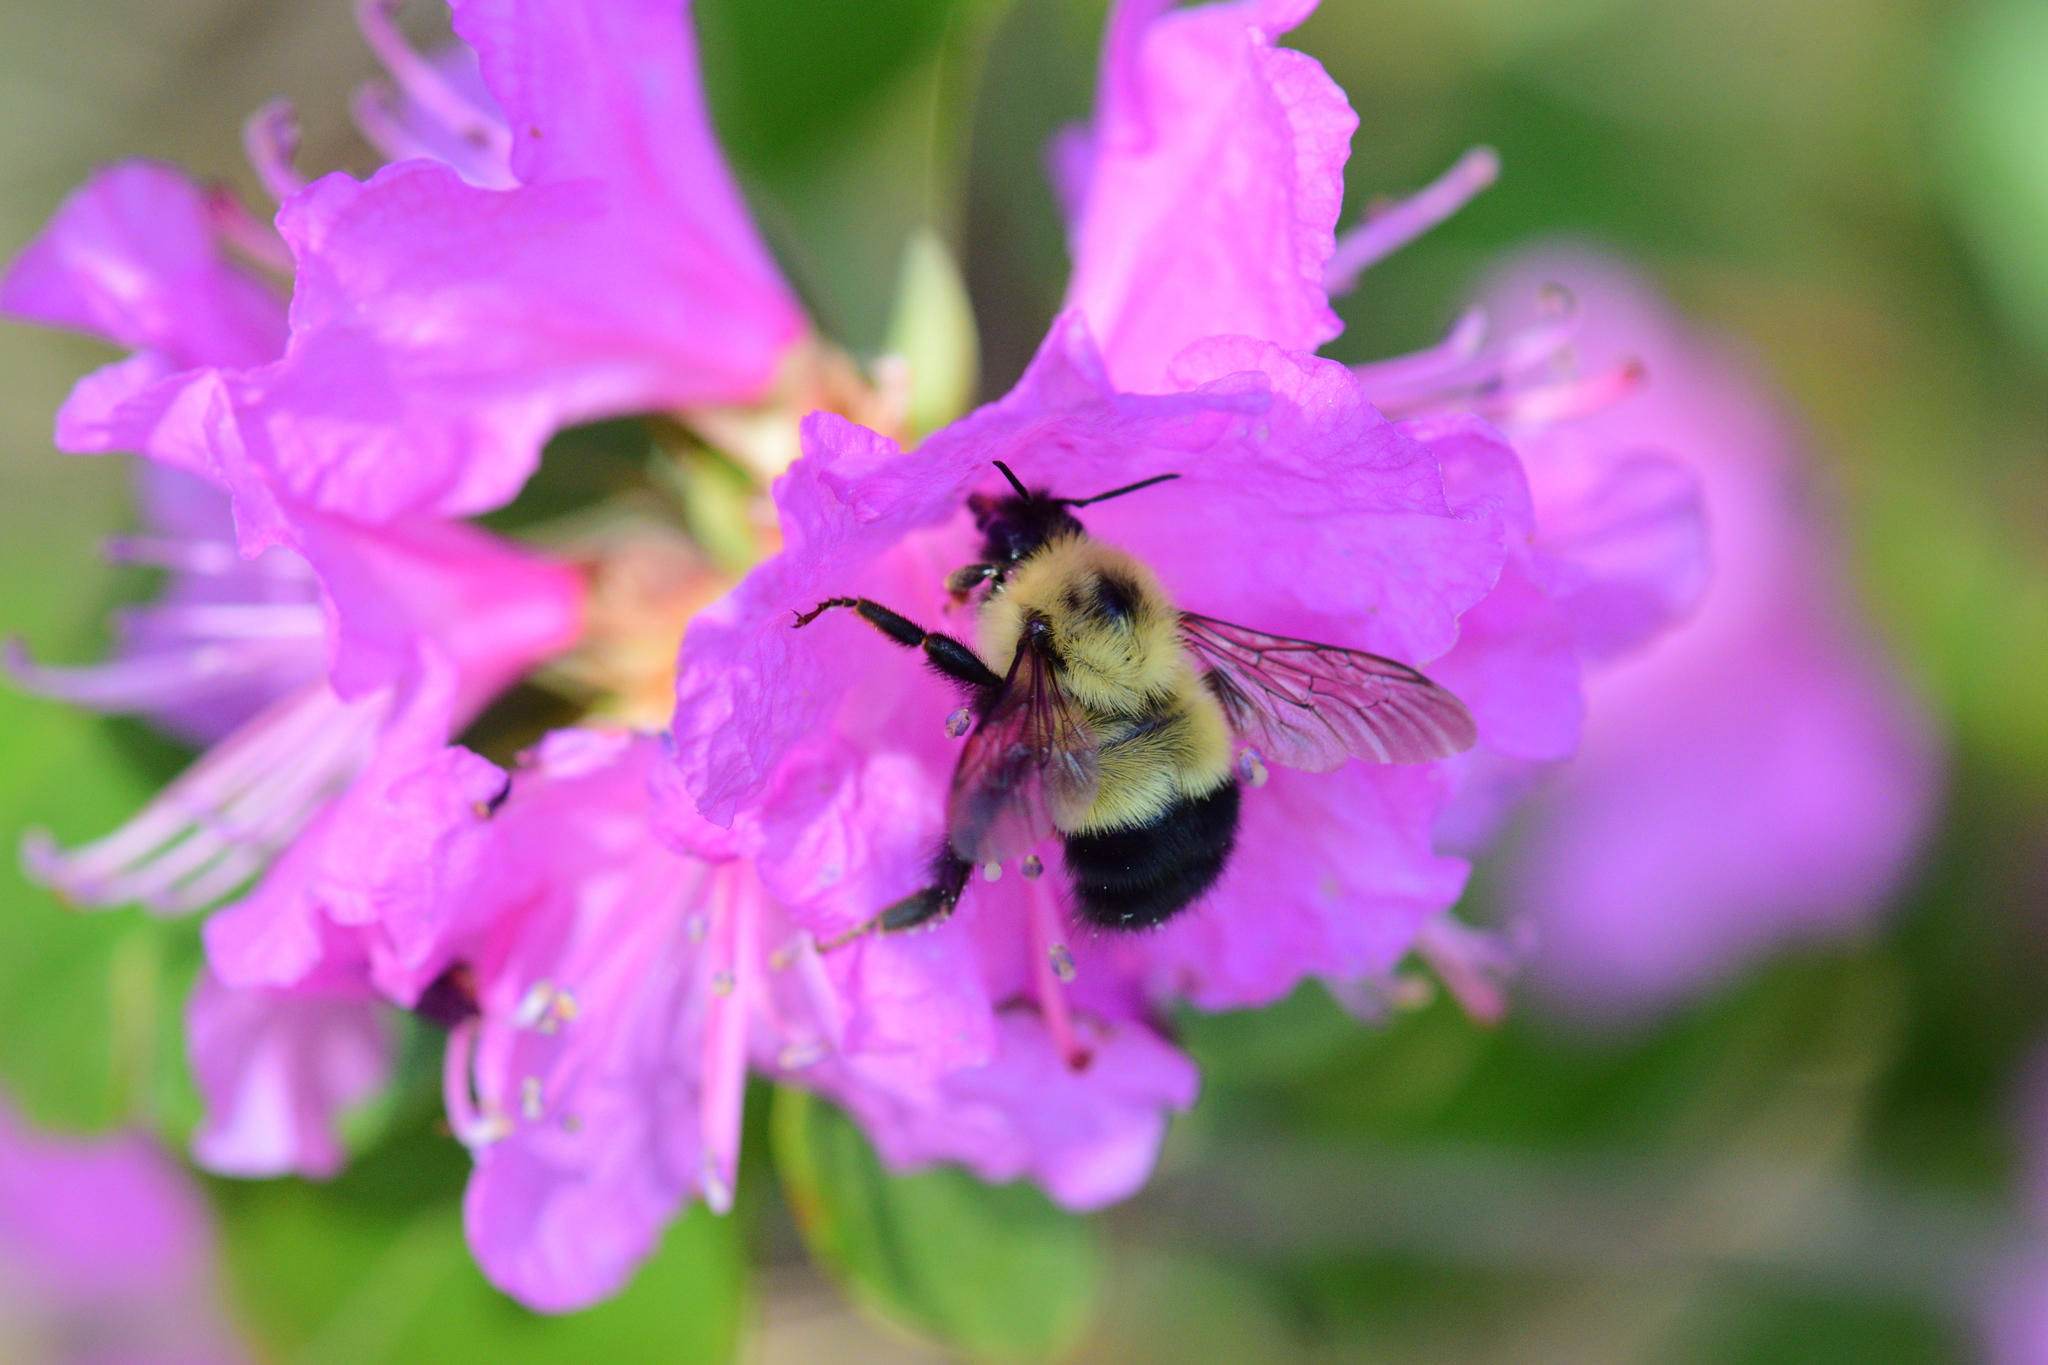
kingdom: Animalia
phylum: Arthropoda
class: Insecta
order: Hymenoptera
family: Apidae
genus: Pyrobombus
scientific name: Pyrobombus
